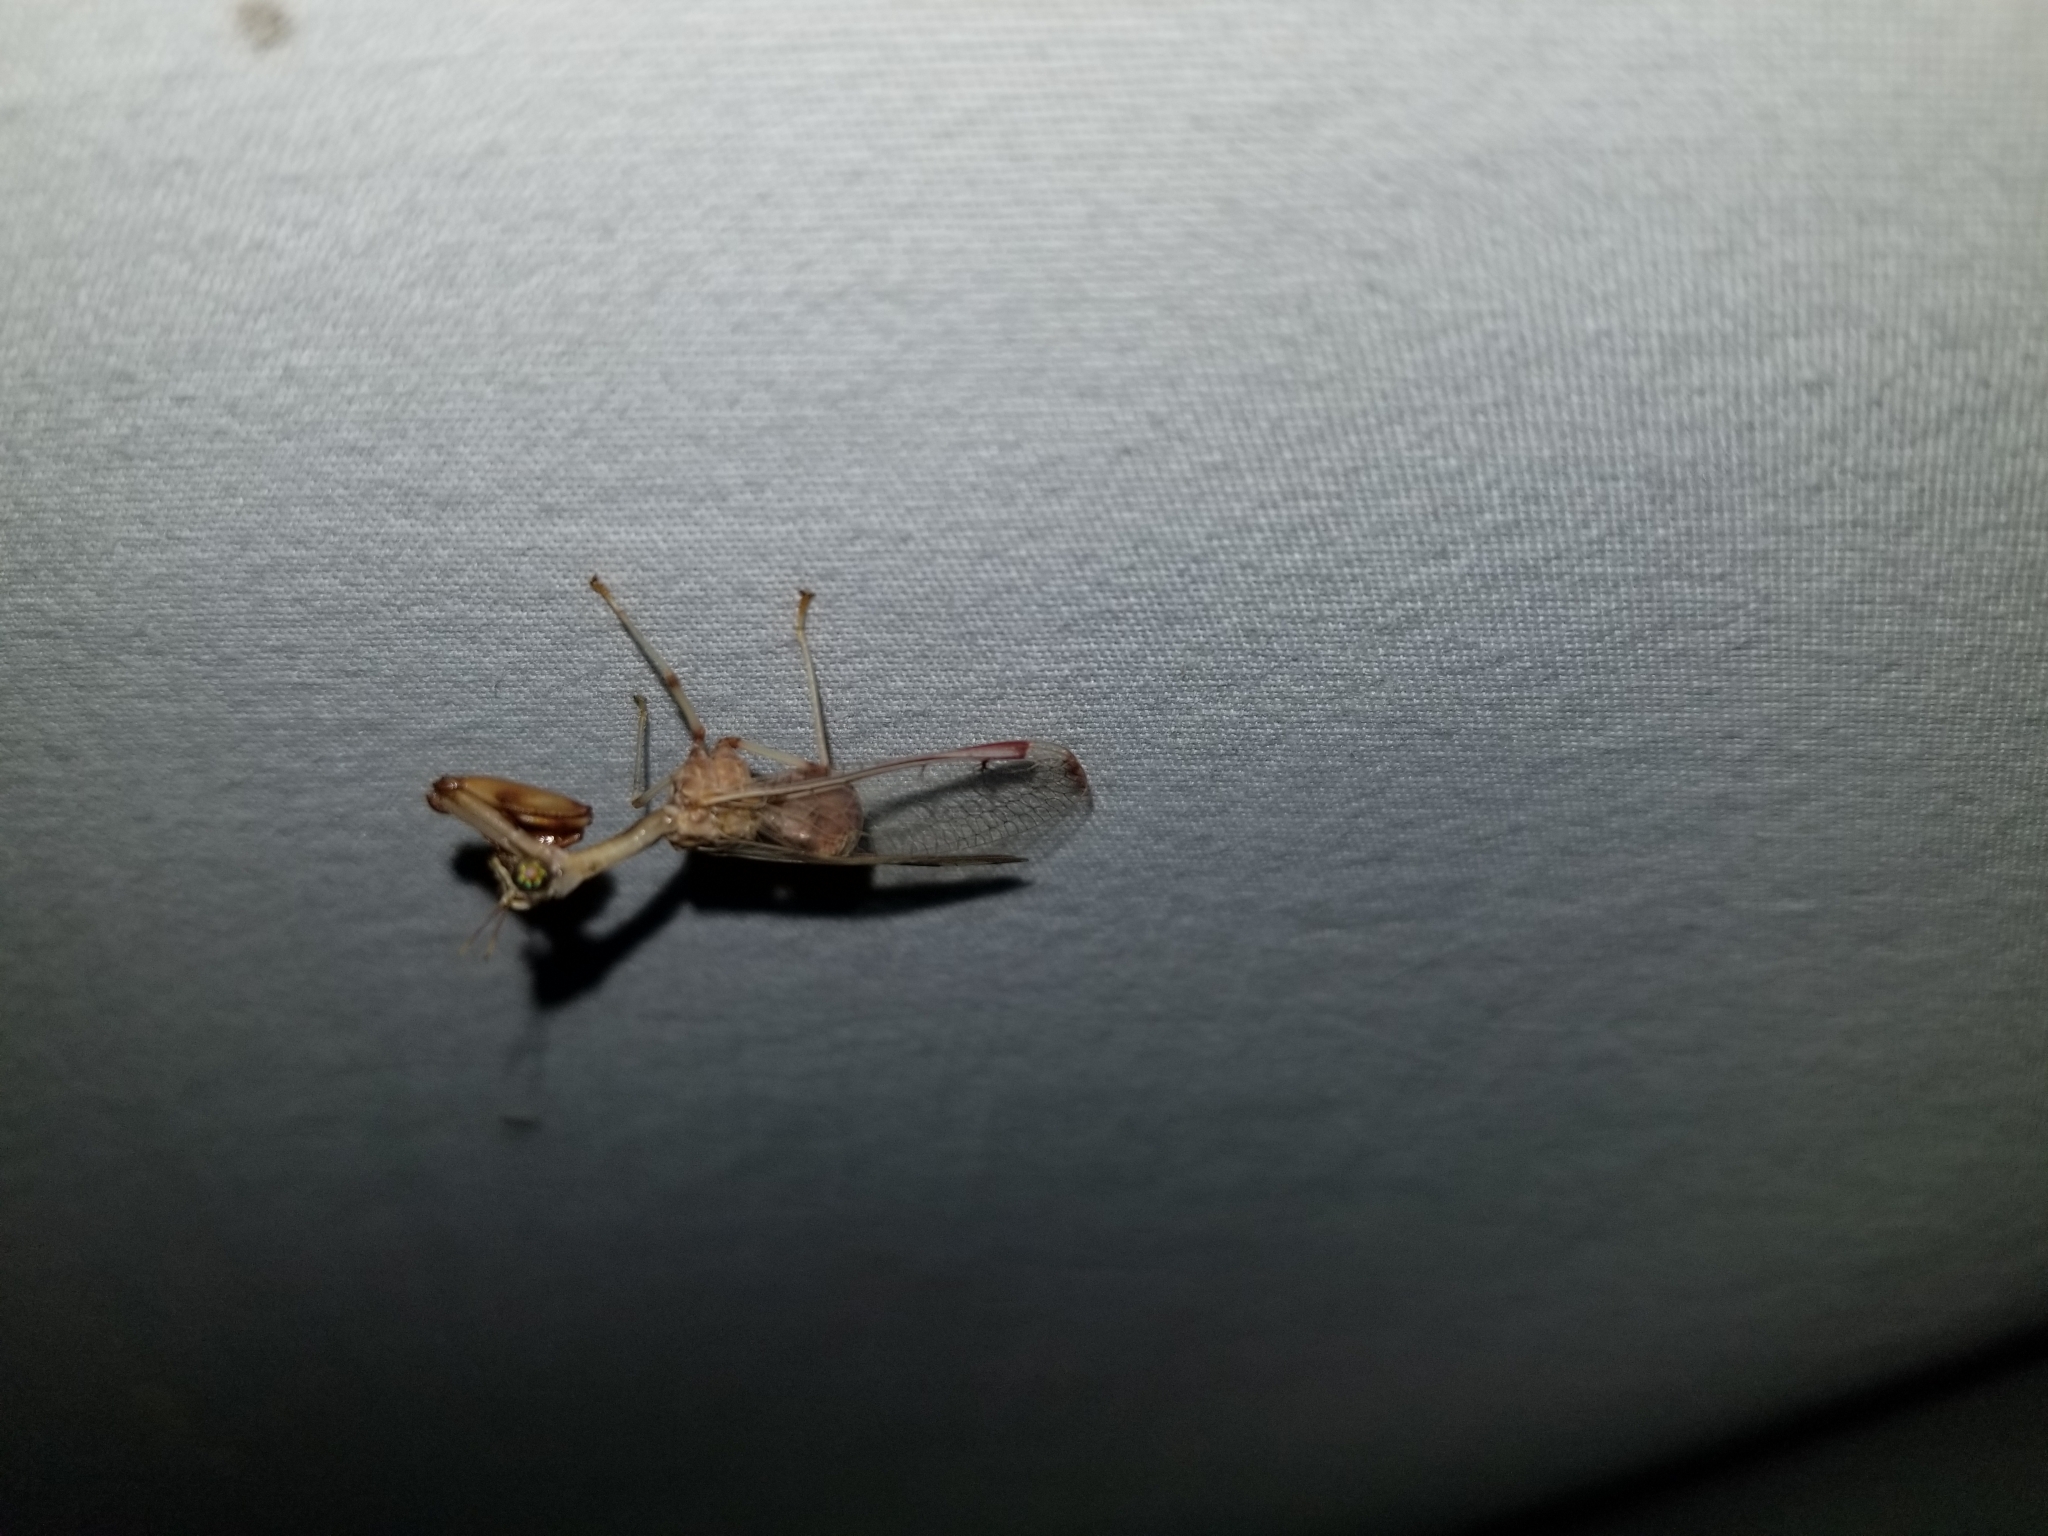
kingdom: Animalia
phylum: Arthropoda
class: Insecta
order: Neuroptera
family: Mantispidae
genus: Dicromantispa
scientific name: Dicromantispa interrupta
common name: Four-spotted mantidfly
